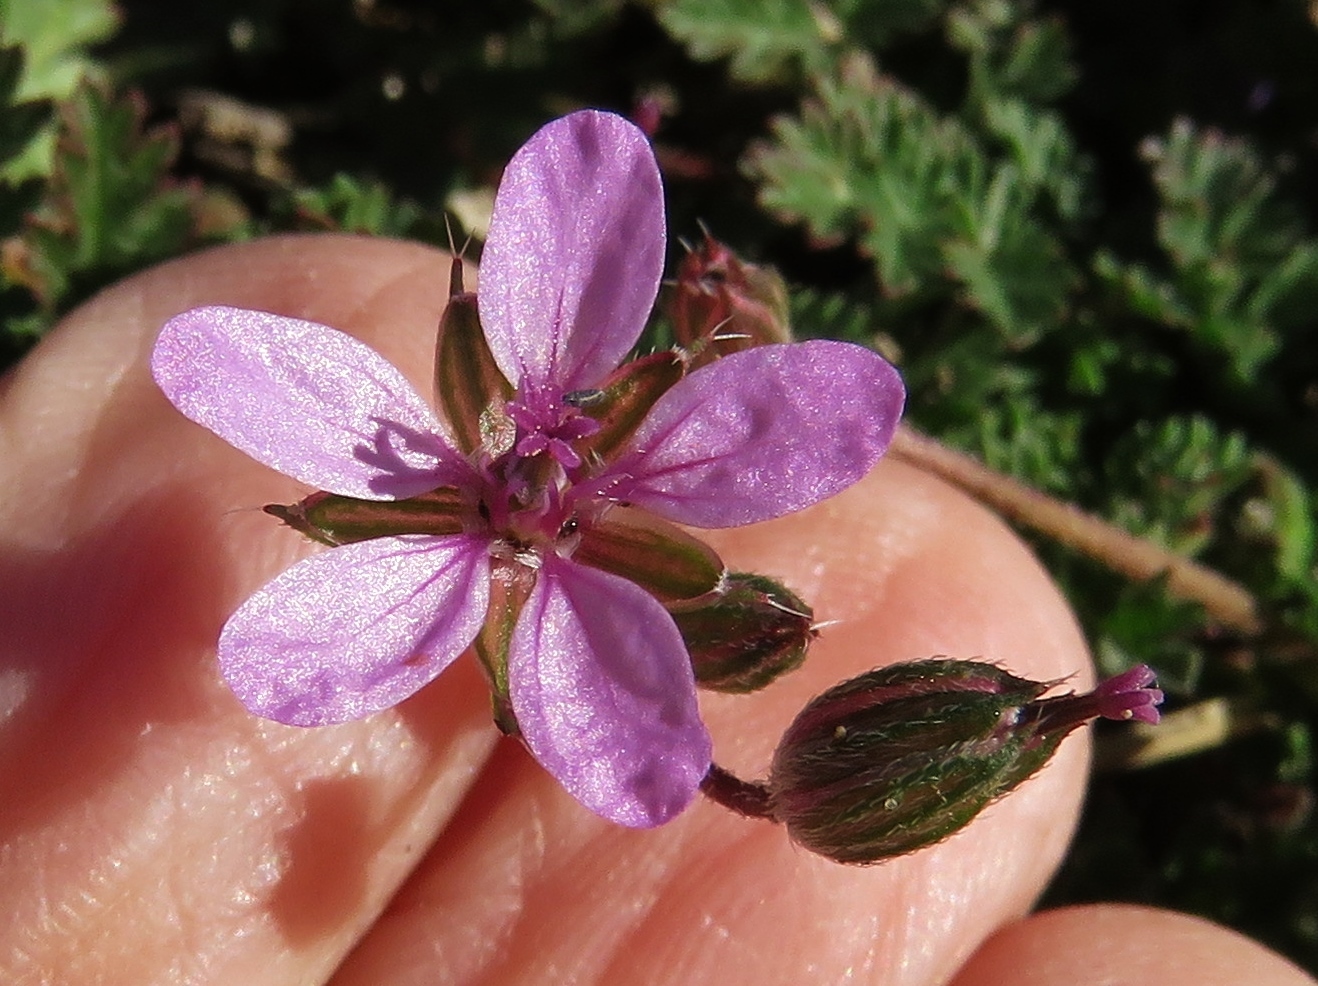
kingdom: Plantae
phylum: Tracheophyta
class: Magnoliopsida
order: Geraniales
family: Geraniaceae
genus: Erodium
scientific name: Erodium cicutarium
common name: Common stork's-bill
